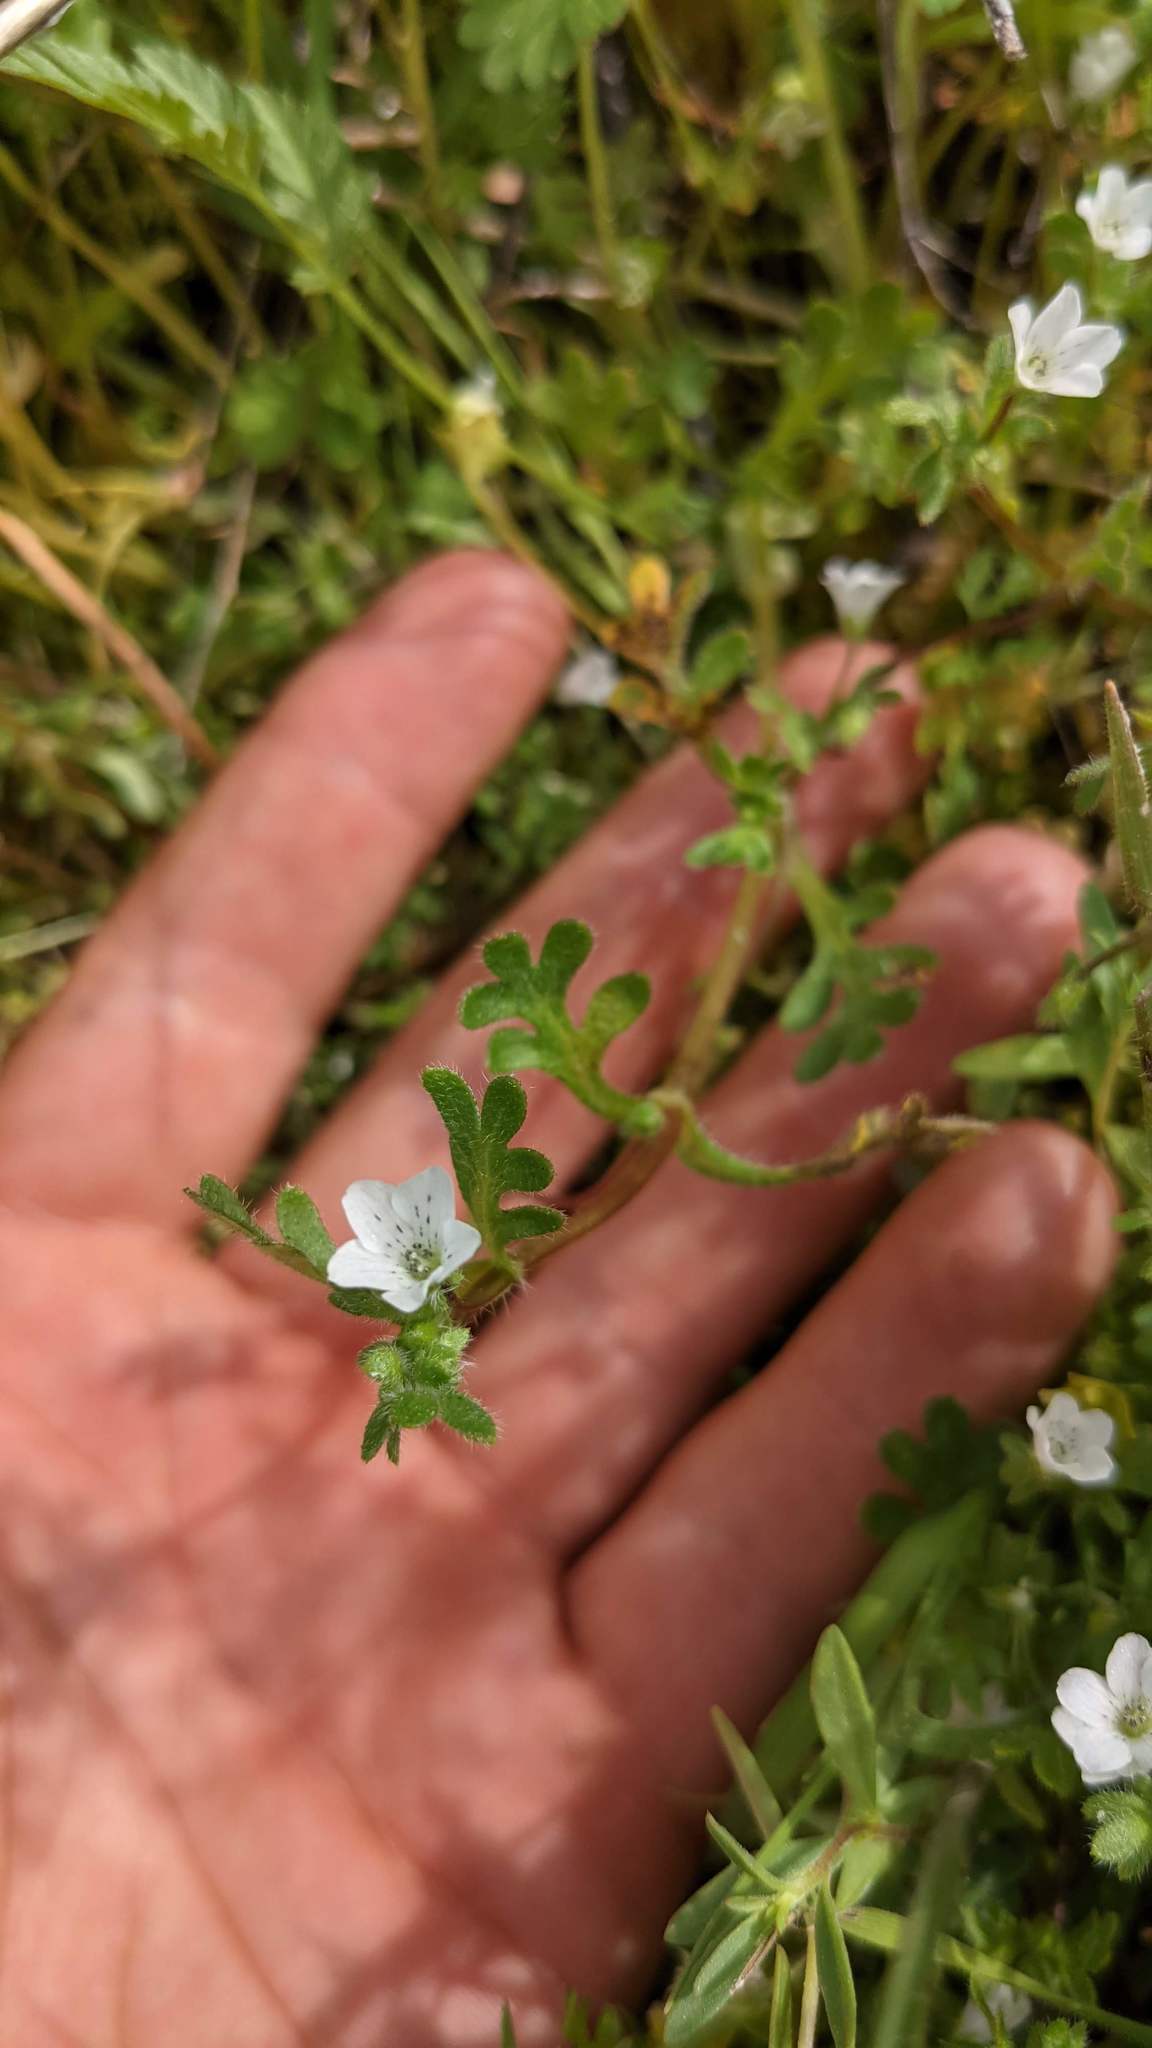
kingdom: Plantae
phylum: Tracheophyta
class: Magnoliopsida
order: Boraginales
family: Hydrophyllaceae
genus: Nemophila
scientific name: Nemophila pedunculata
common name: Little-foot baby-blue-eyes
